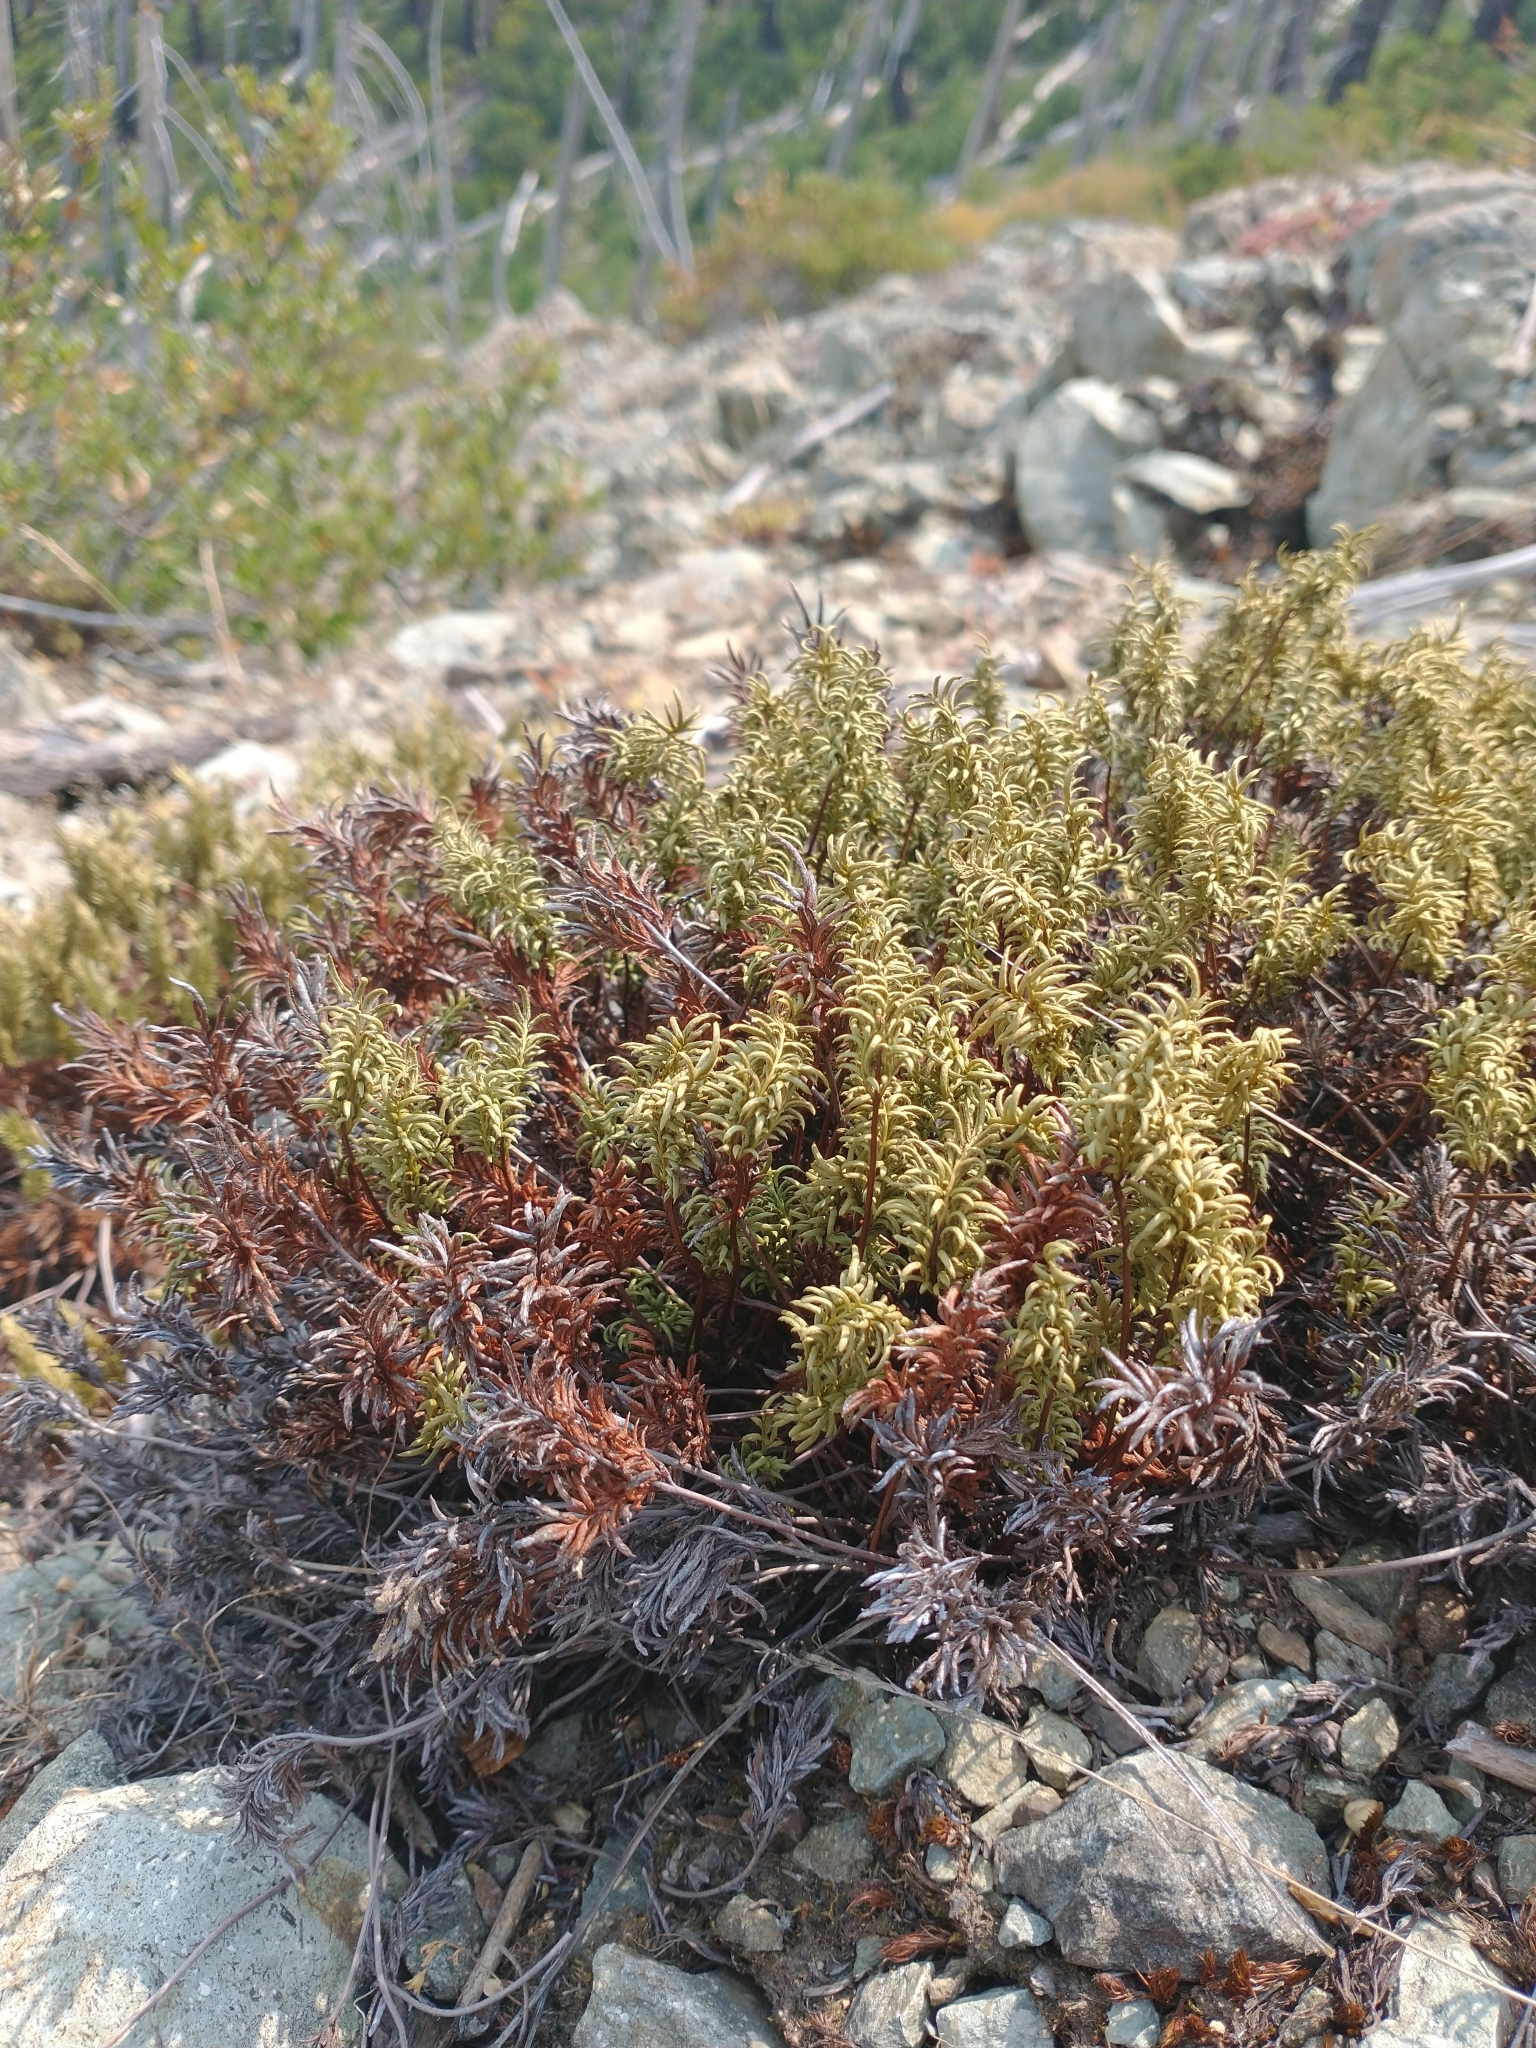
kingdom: Plantae
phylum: Tracheophyta
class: Polypodiopsida
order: Polypodiales
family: Pteridaceae
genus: Aspidotis
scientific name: Aspidotis densa
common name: Indian's dream
